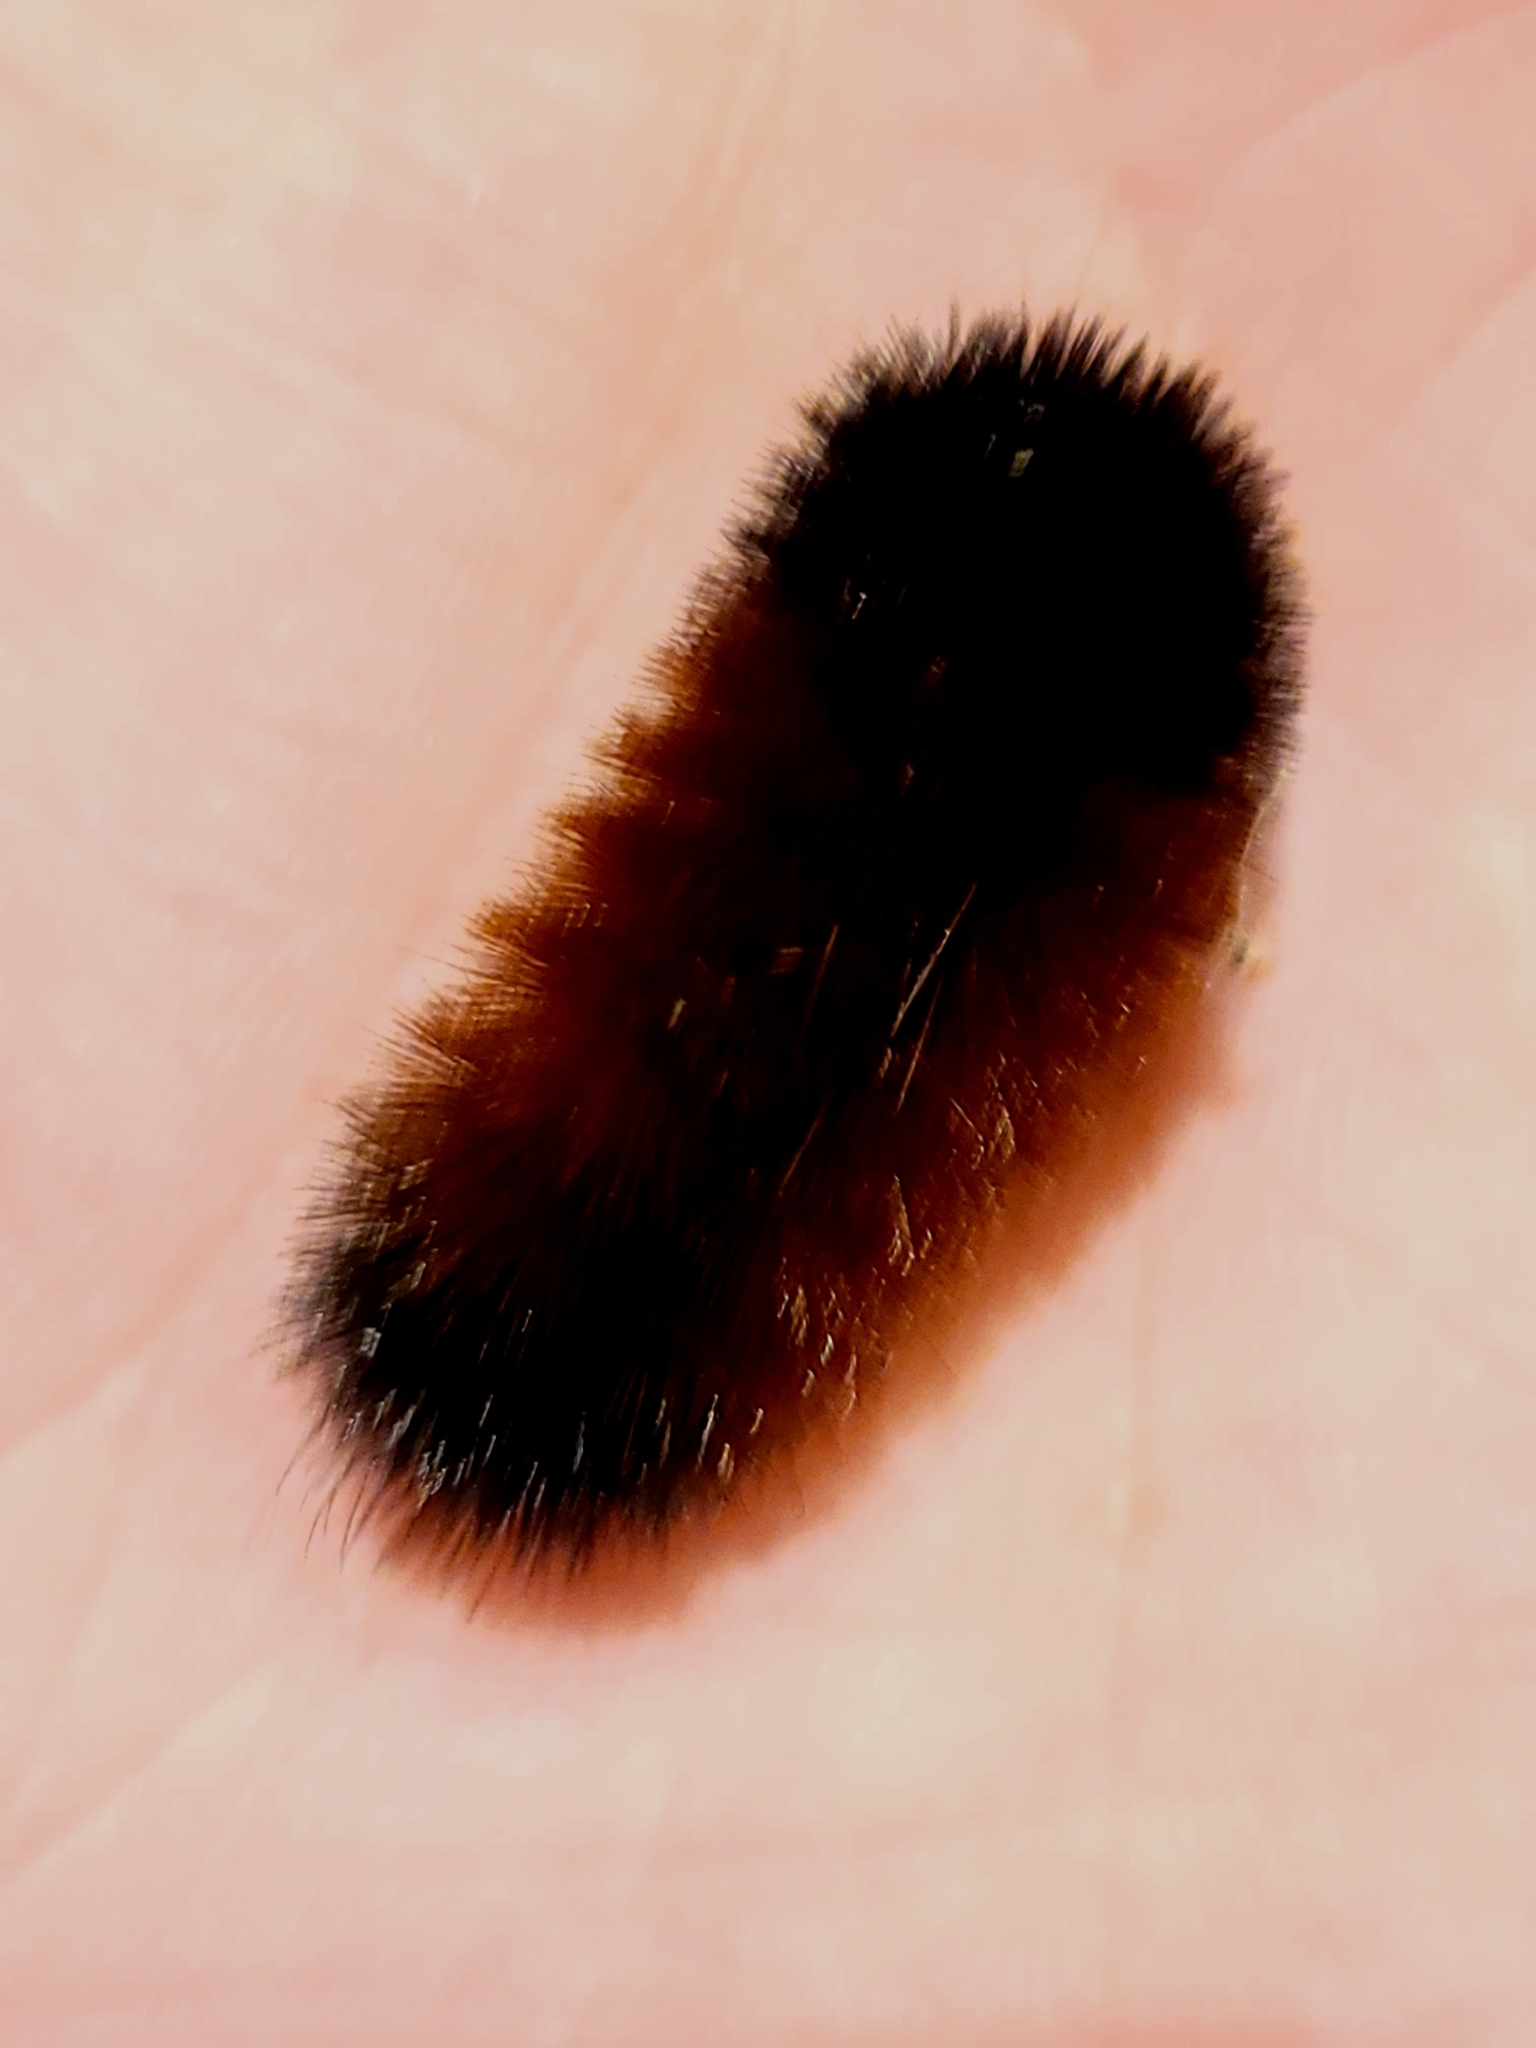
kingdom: Animalia
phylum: Arthropoda
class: Insecta
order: Lepidoptera
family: Erebidae
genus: Pyrrharctia
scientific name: Pyrrharctia isabella
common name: Isabella tiger moth
